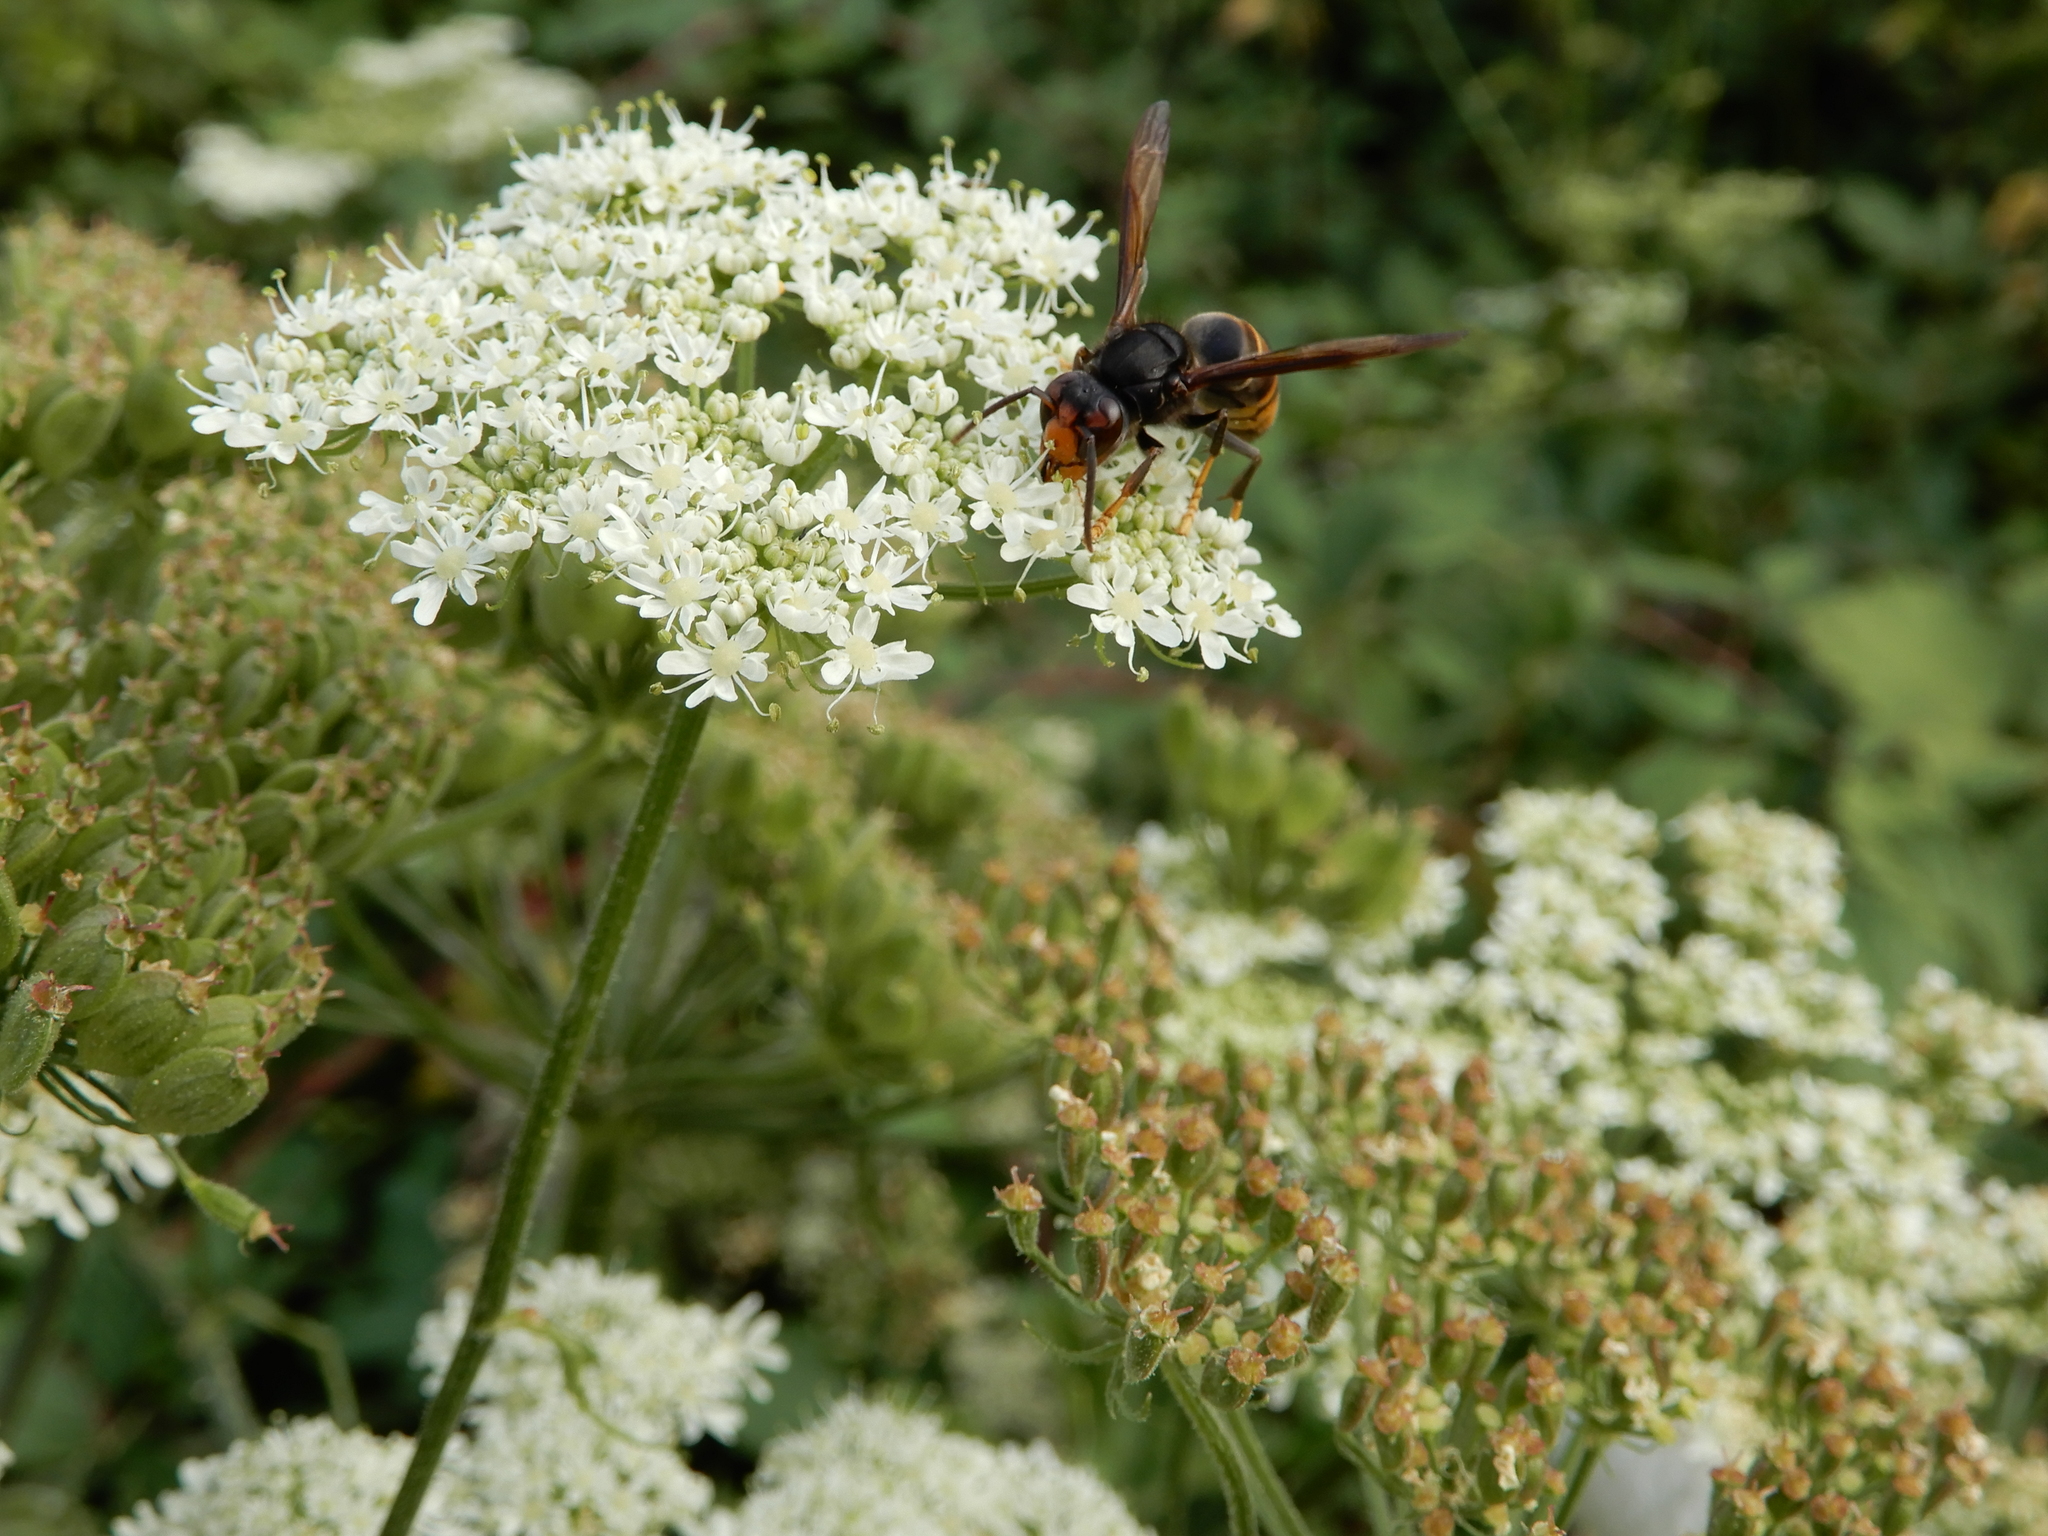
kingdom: Animalia
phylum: Arthropoda
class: Insecta
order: Hymenoptera
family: Vespidae
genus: Vespa
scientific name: Vespa velutina
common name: Asian hornet
